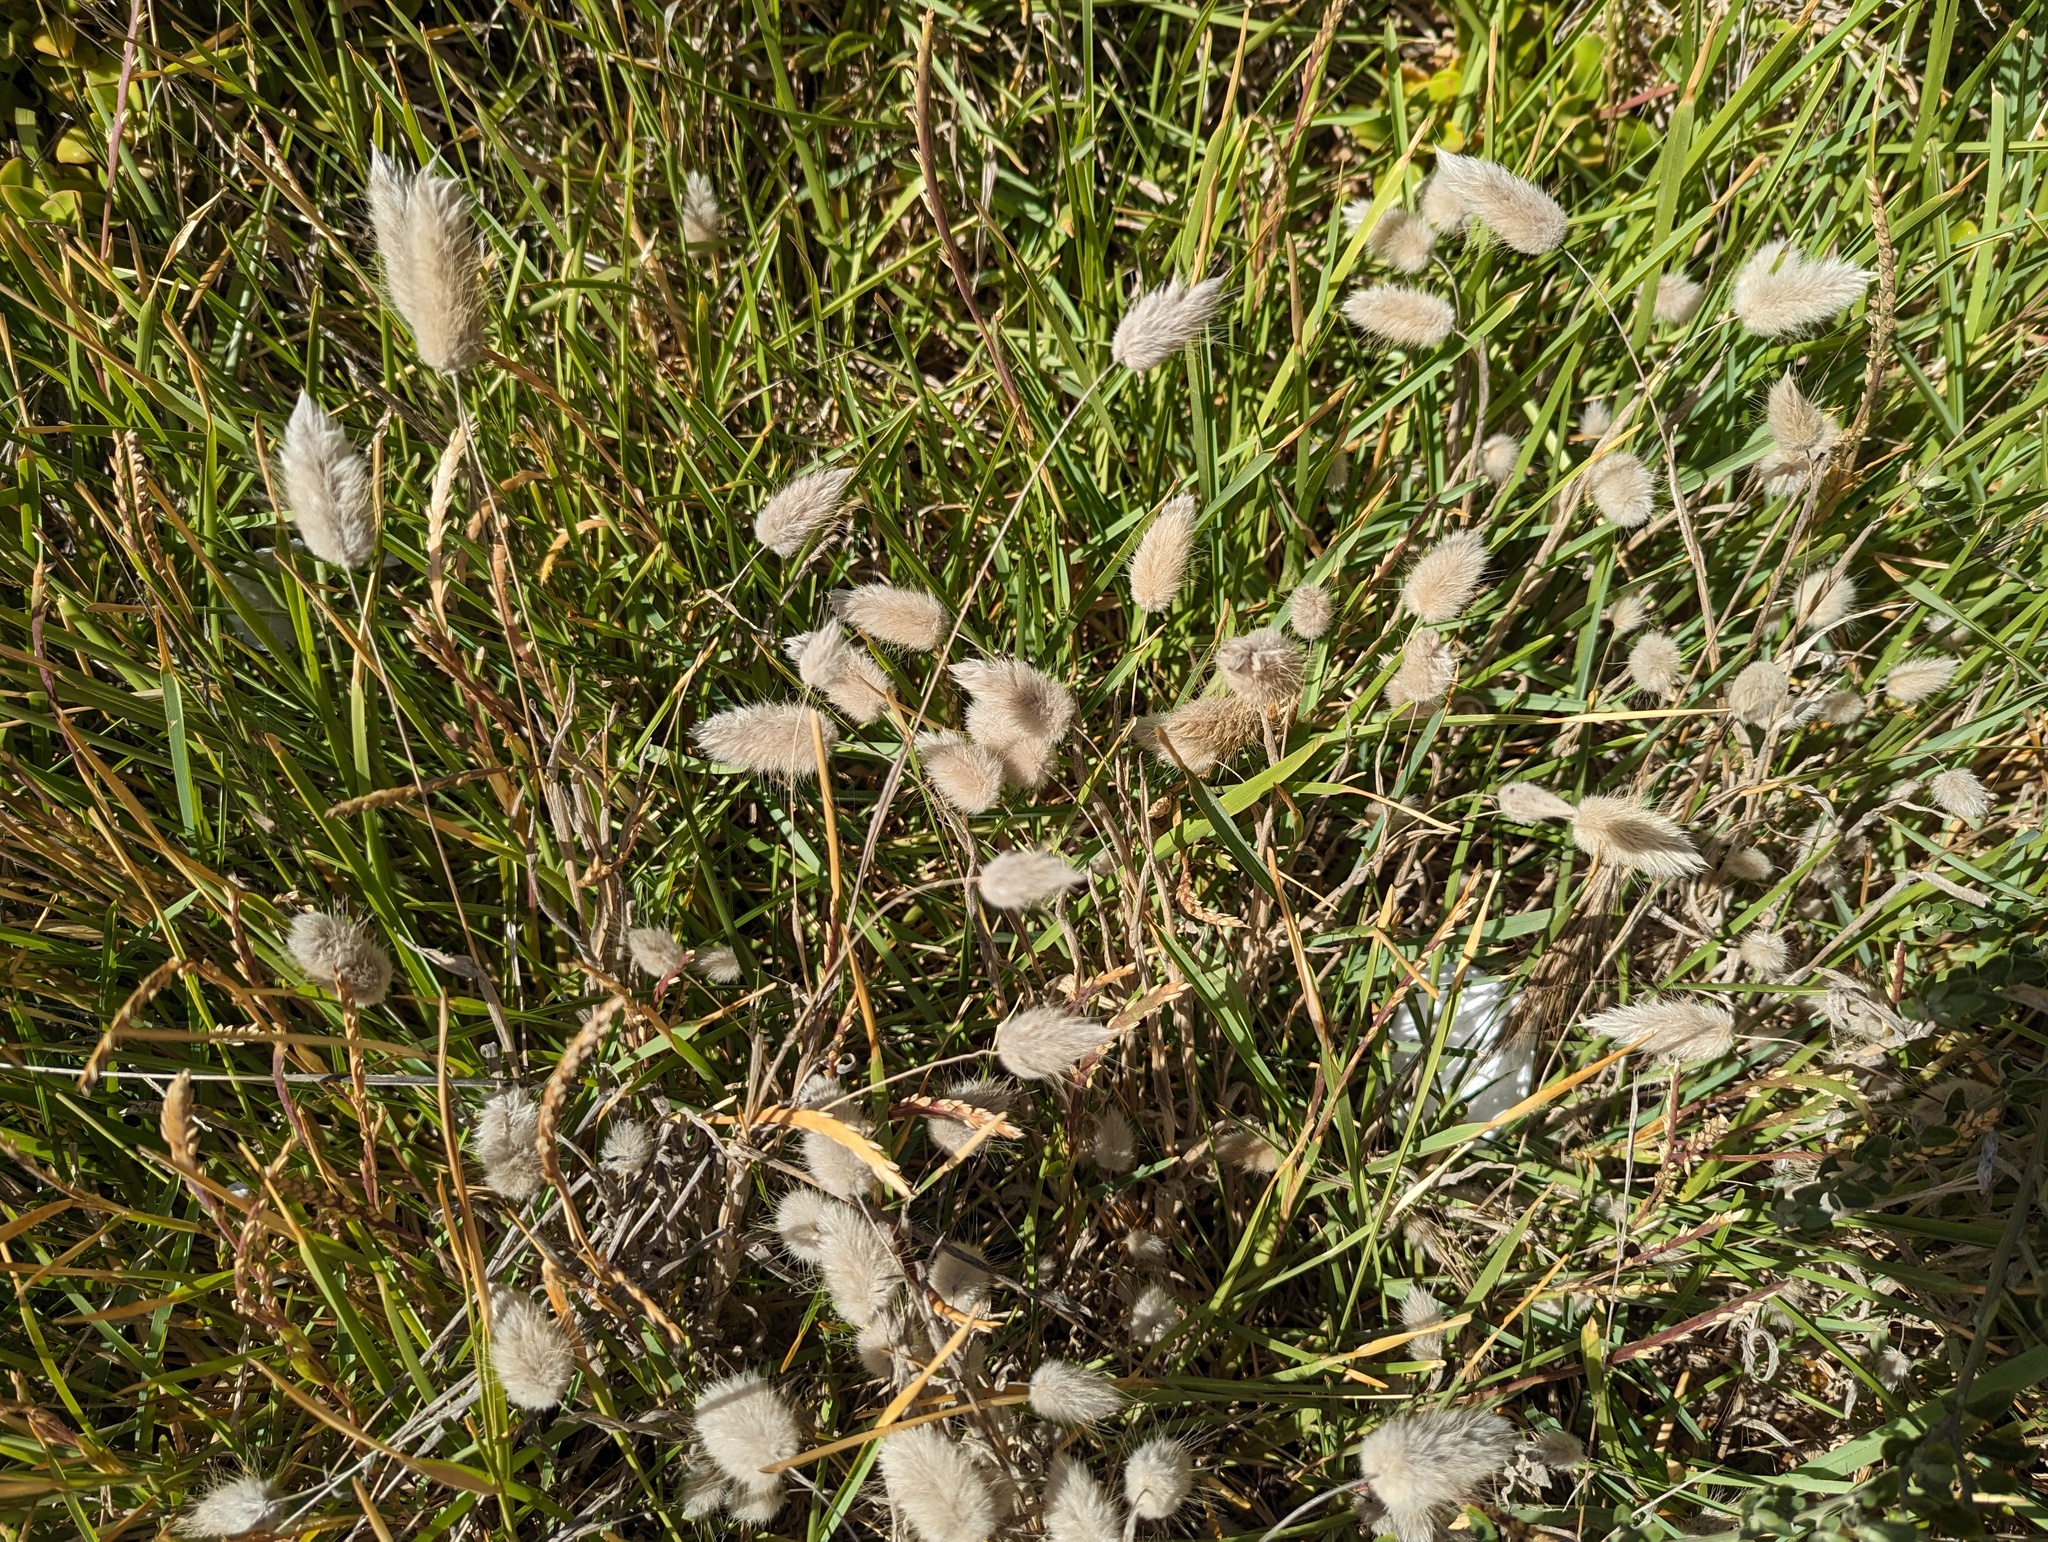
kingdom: Plantae
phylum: Tracheophyta
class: Liliopsida
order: Poales
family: Poaceae
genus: Lagurus
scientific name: Lagurus ovatus
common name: Hare's-tail
